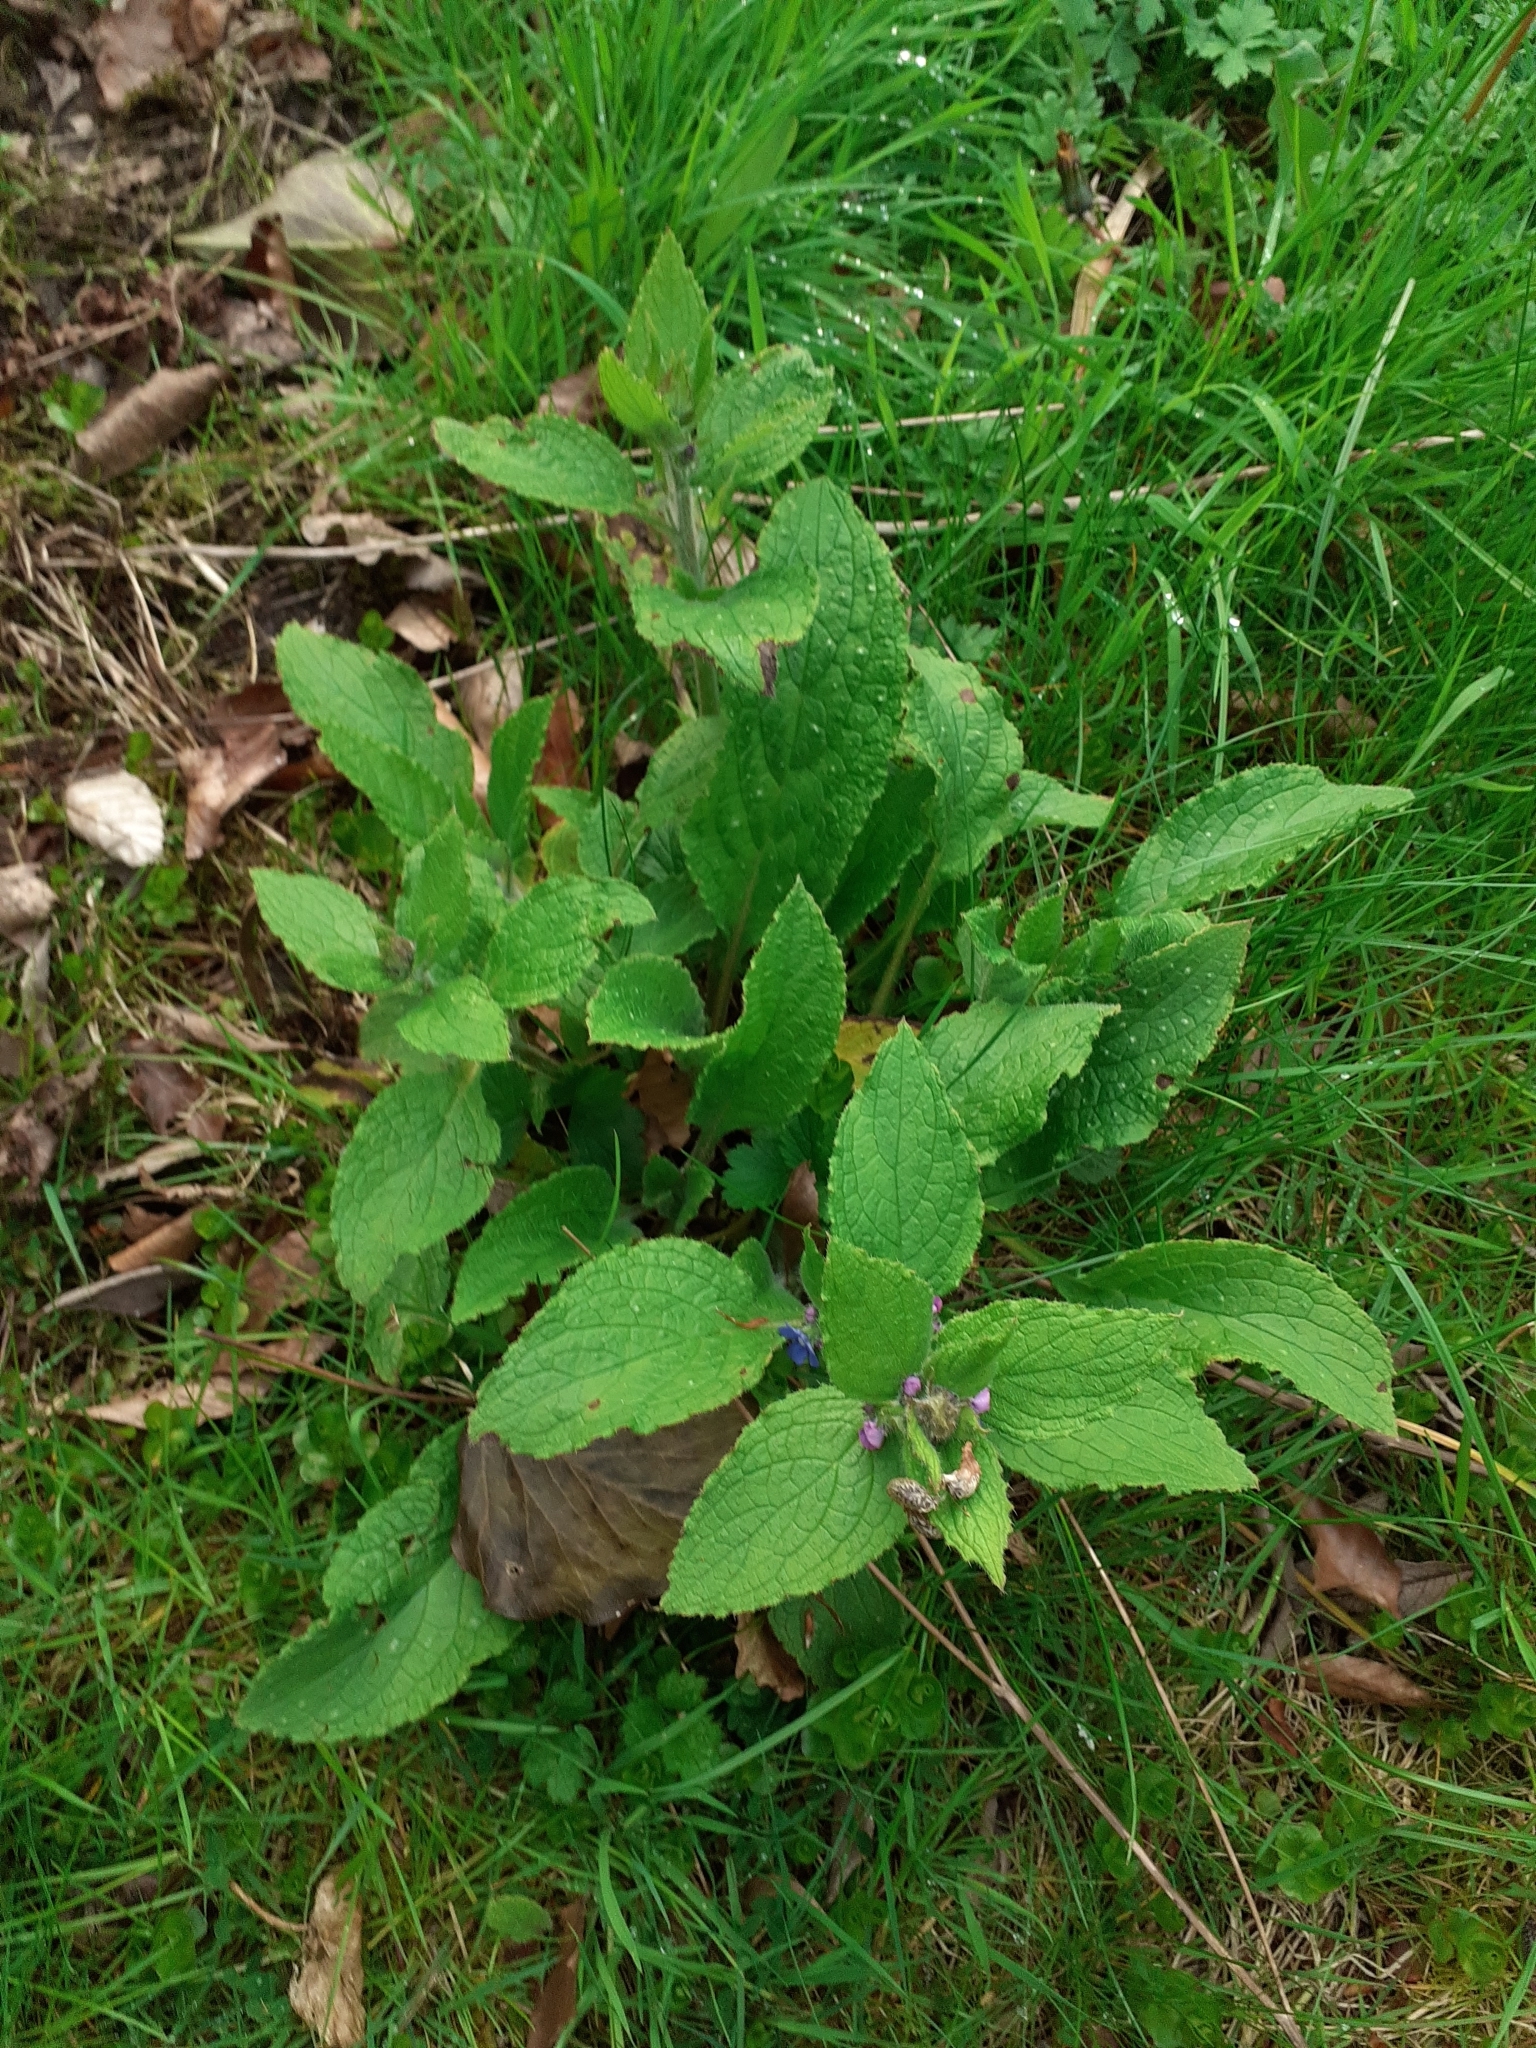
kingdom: Plantae
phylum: Tracheophyta
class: Magnoliopsida
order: Boraginales
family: Boraginaceae
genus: Pentaglottis
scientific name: Pentaglottis sempervirens
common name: Green alkanet
